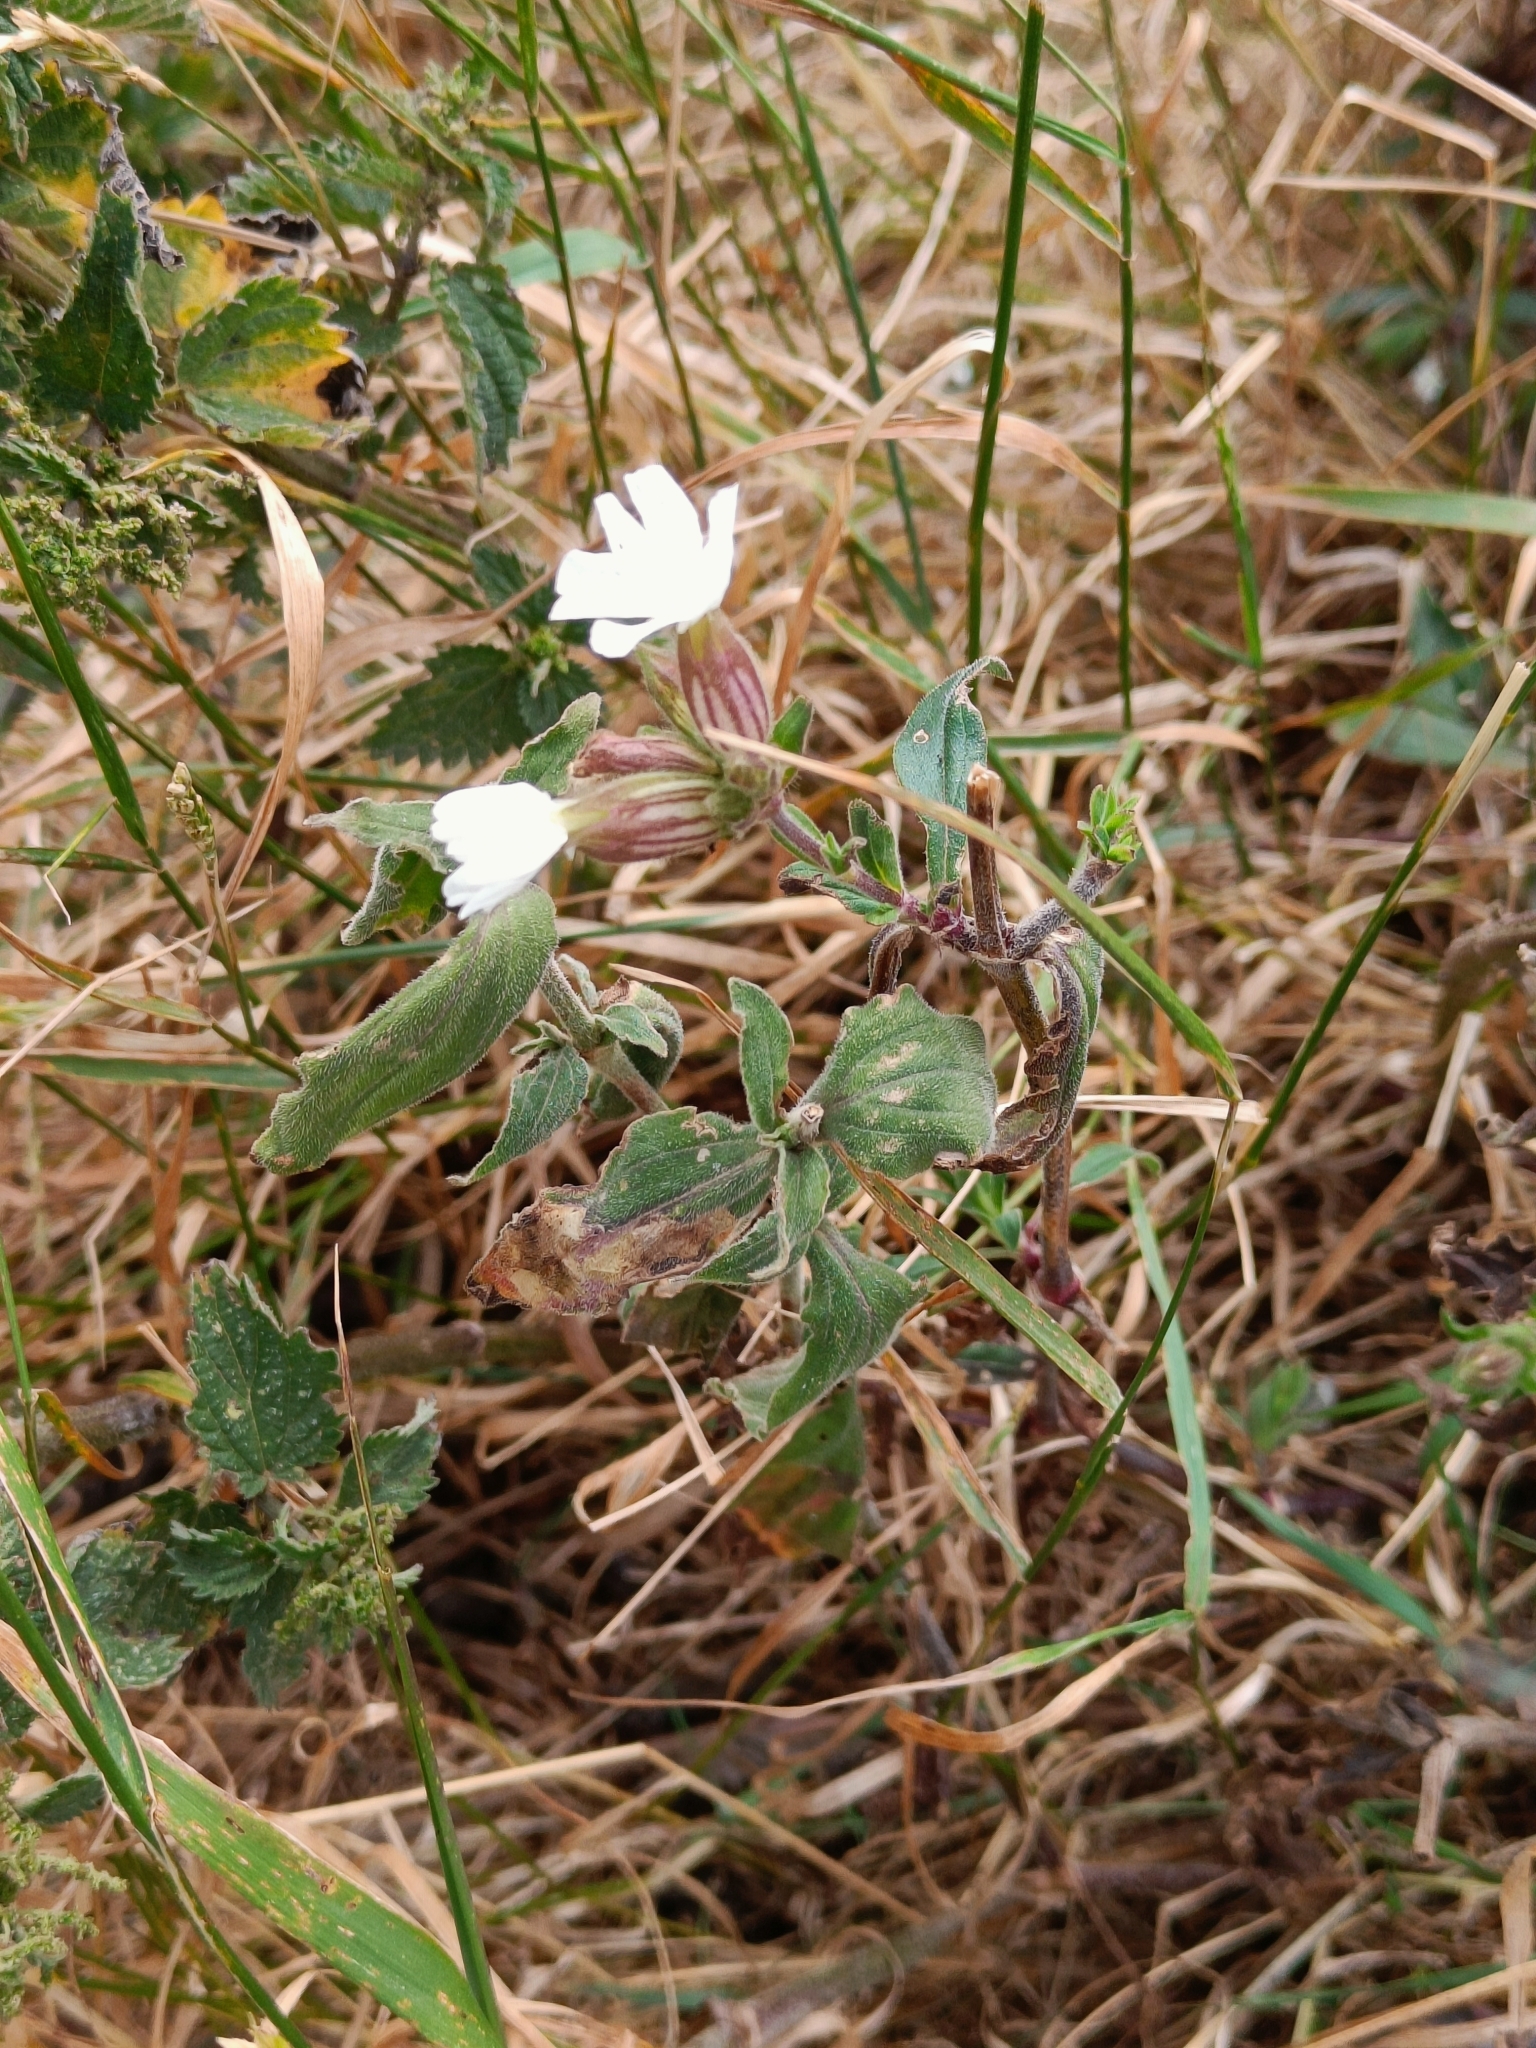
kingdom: Plantae
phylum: Tracheophyta
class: Magnoliopsida
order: Caryophyllales
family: Caryophyllaceae
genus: Silene
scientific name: Silene latifolia
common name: White campion
